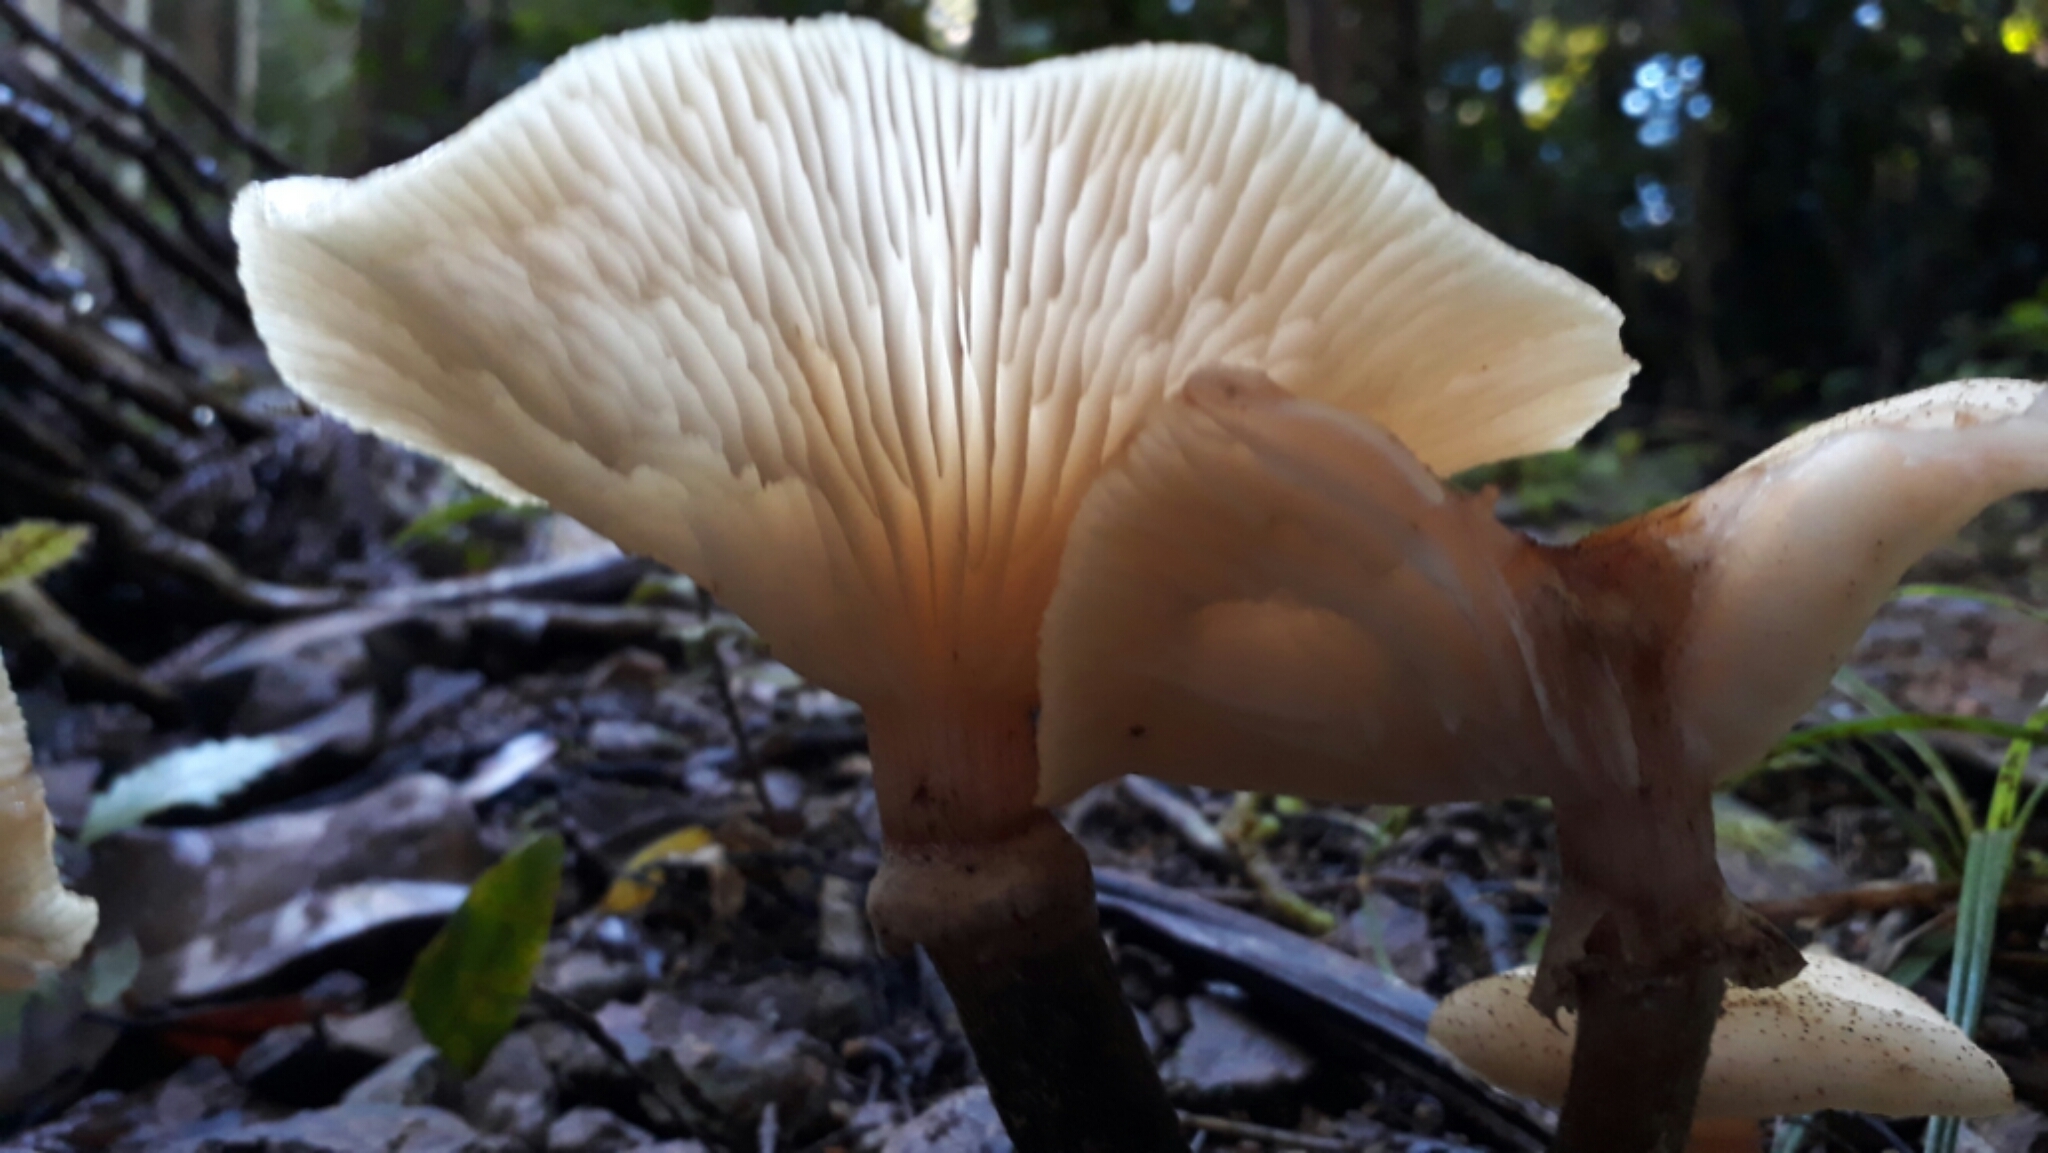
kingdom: Fungi
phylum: Basidiomycota
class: Agaricomycetes
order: Agaricales
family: Physalacriaceae
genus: Armillaria
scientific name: Armillaria limonea
